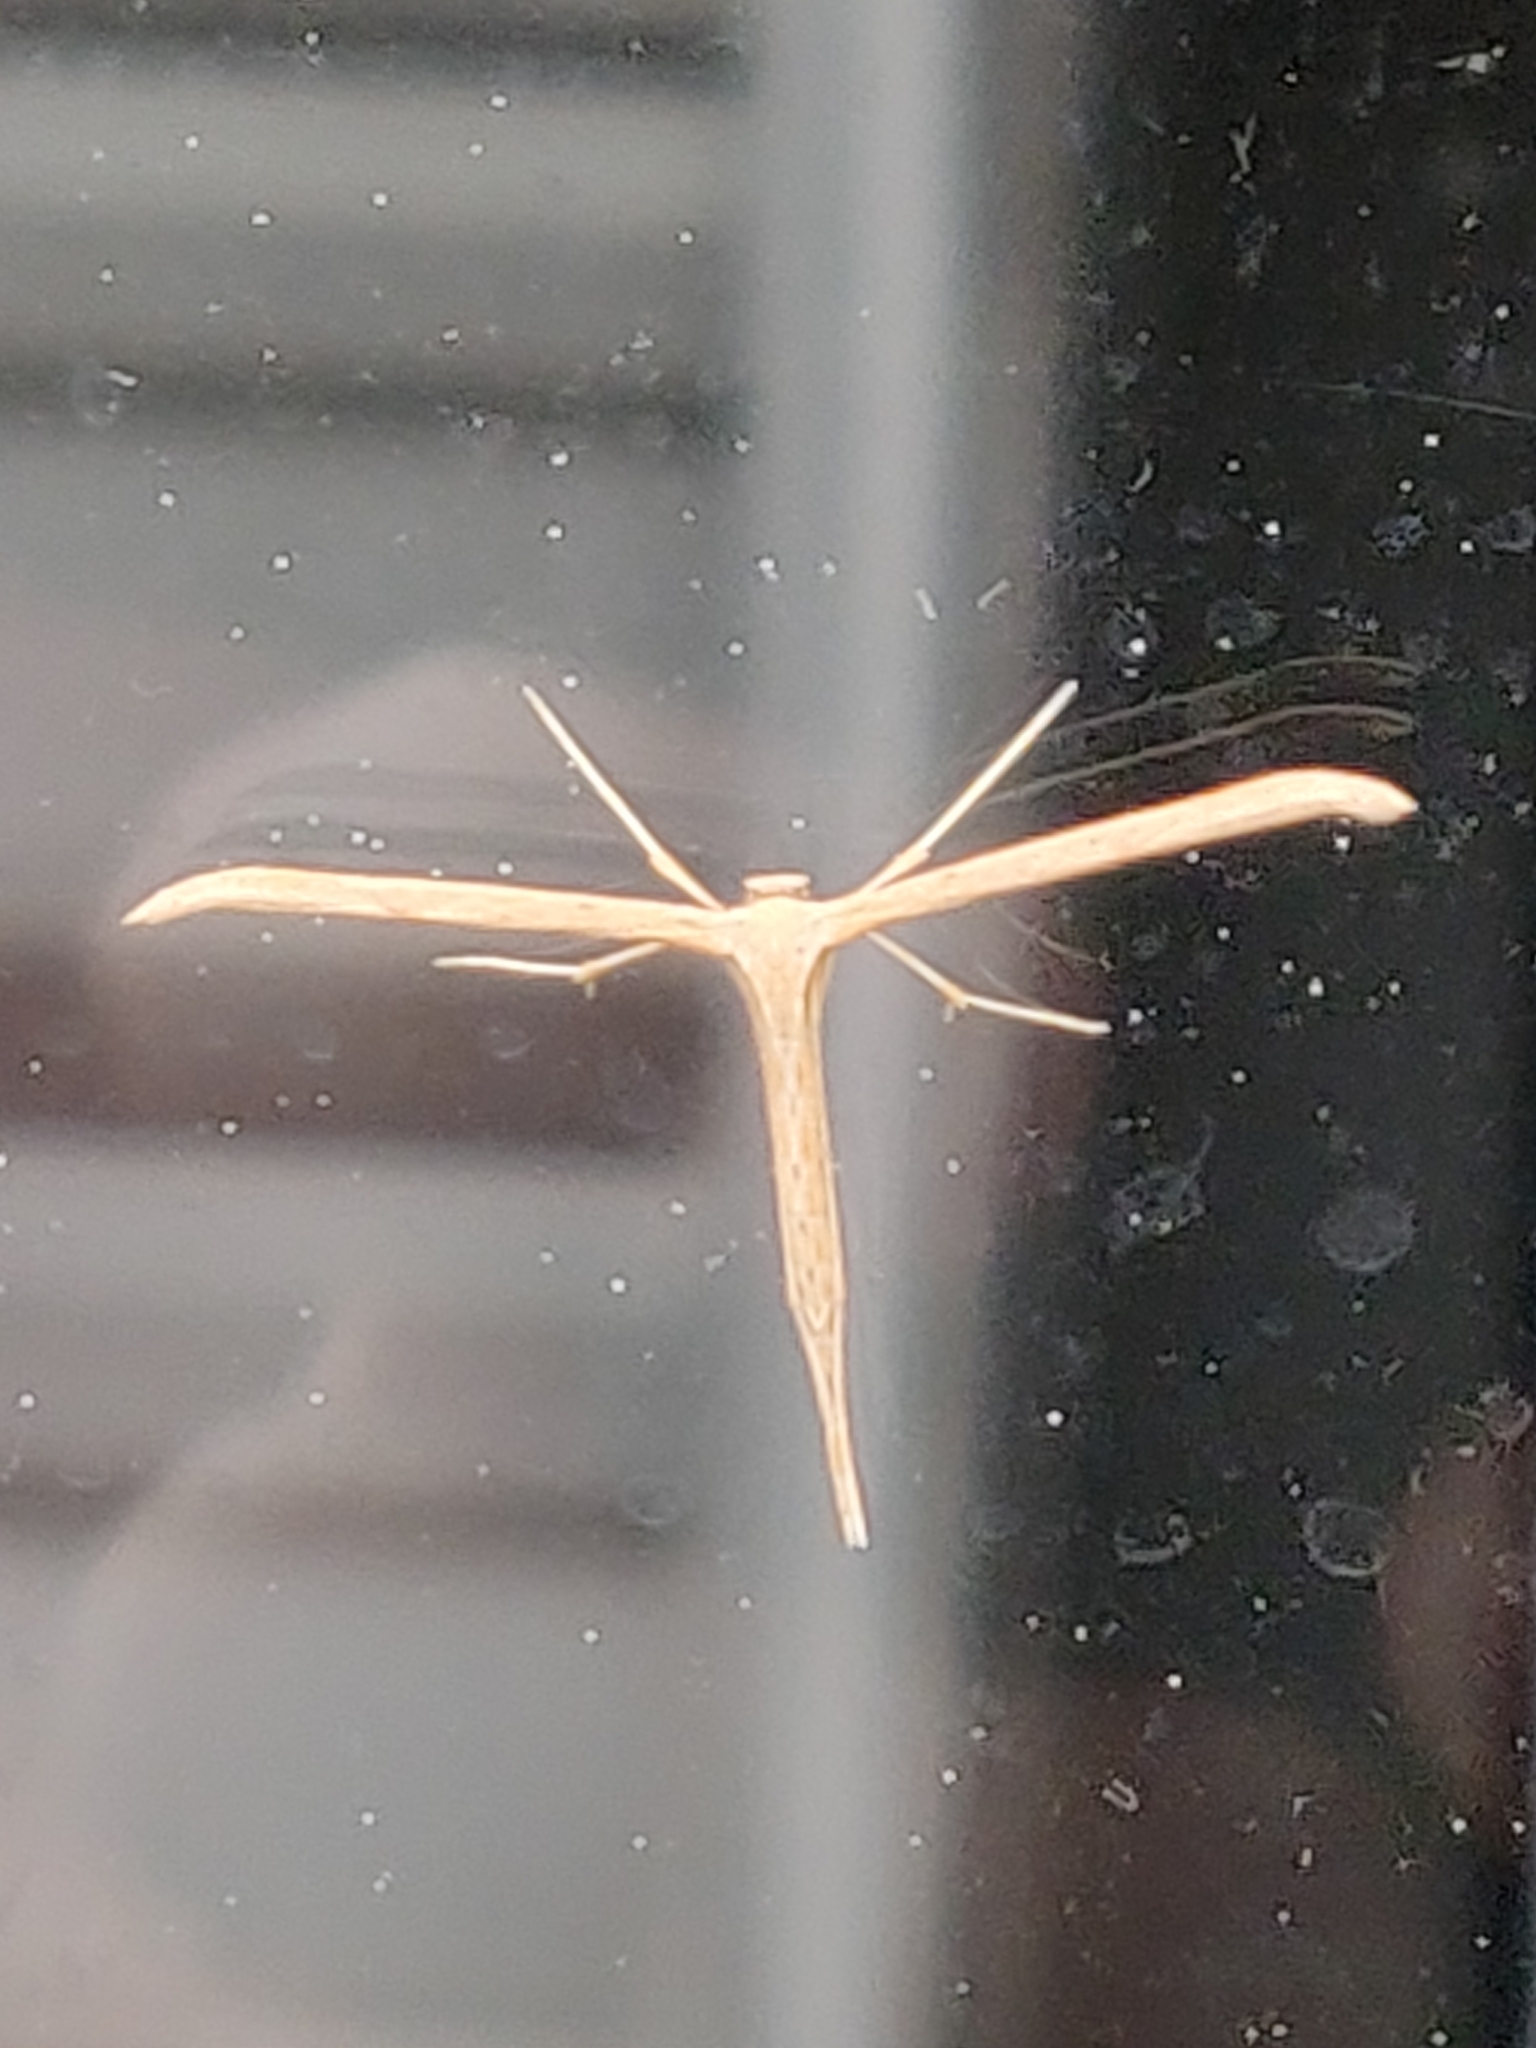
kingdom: Animalia
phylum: Arthropoda
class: Insecta
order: Lepidoptera
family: Pterophoridae
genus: Emmelina
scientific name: Emmelina monodactyla
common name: Common plume
